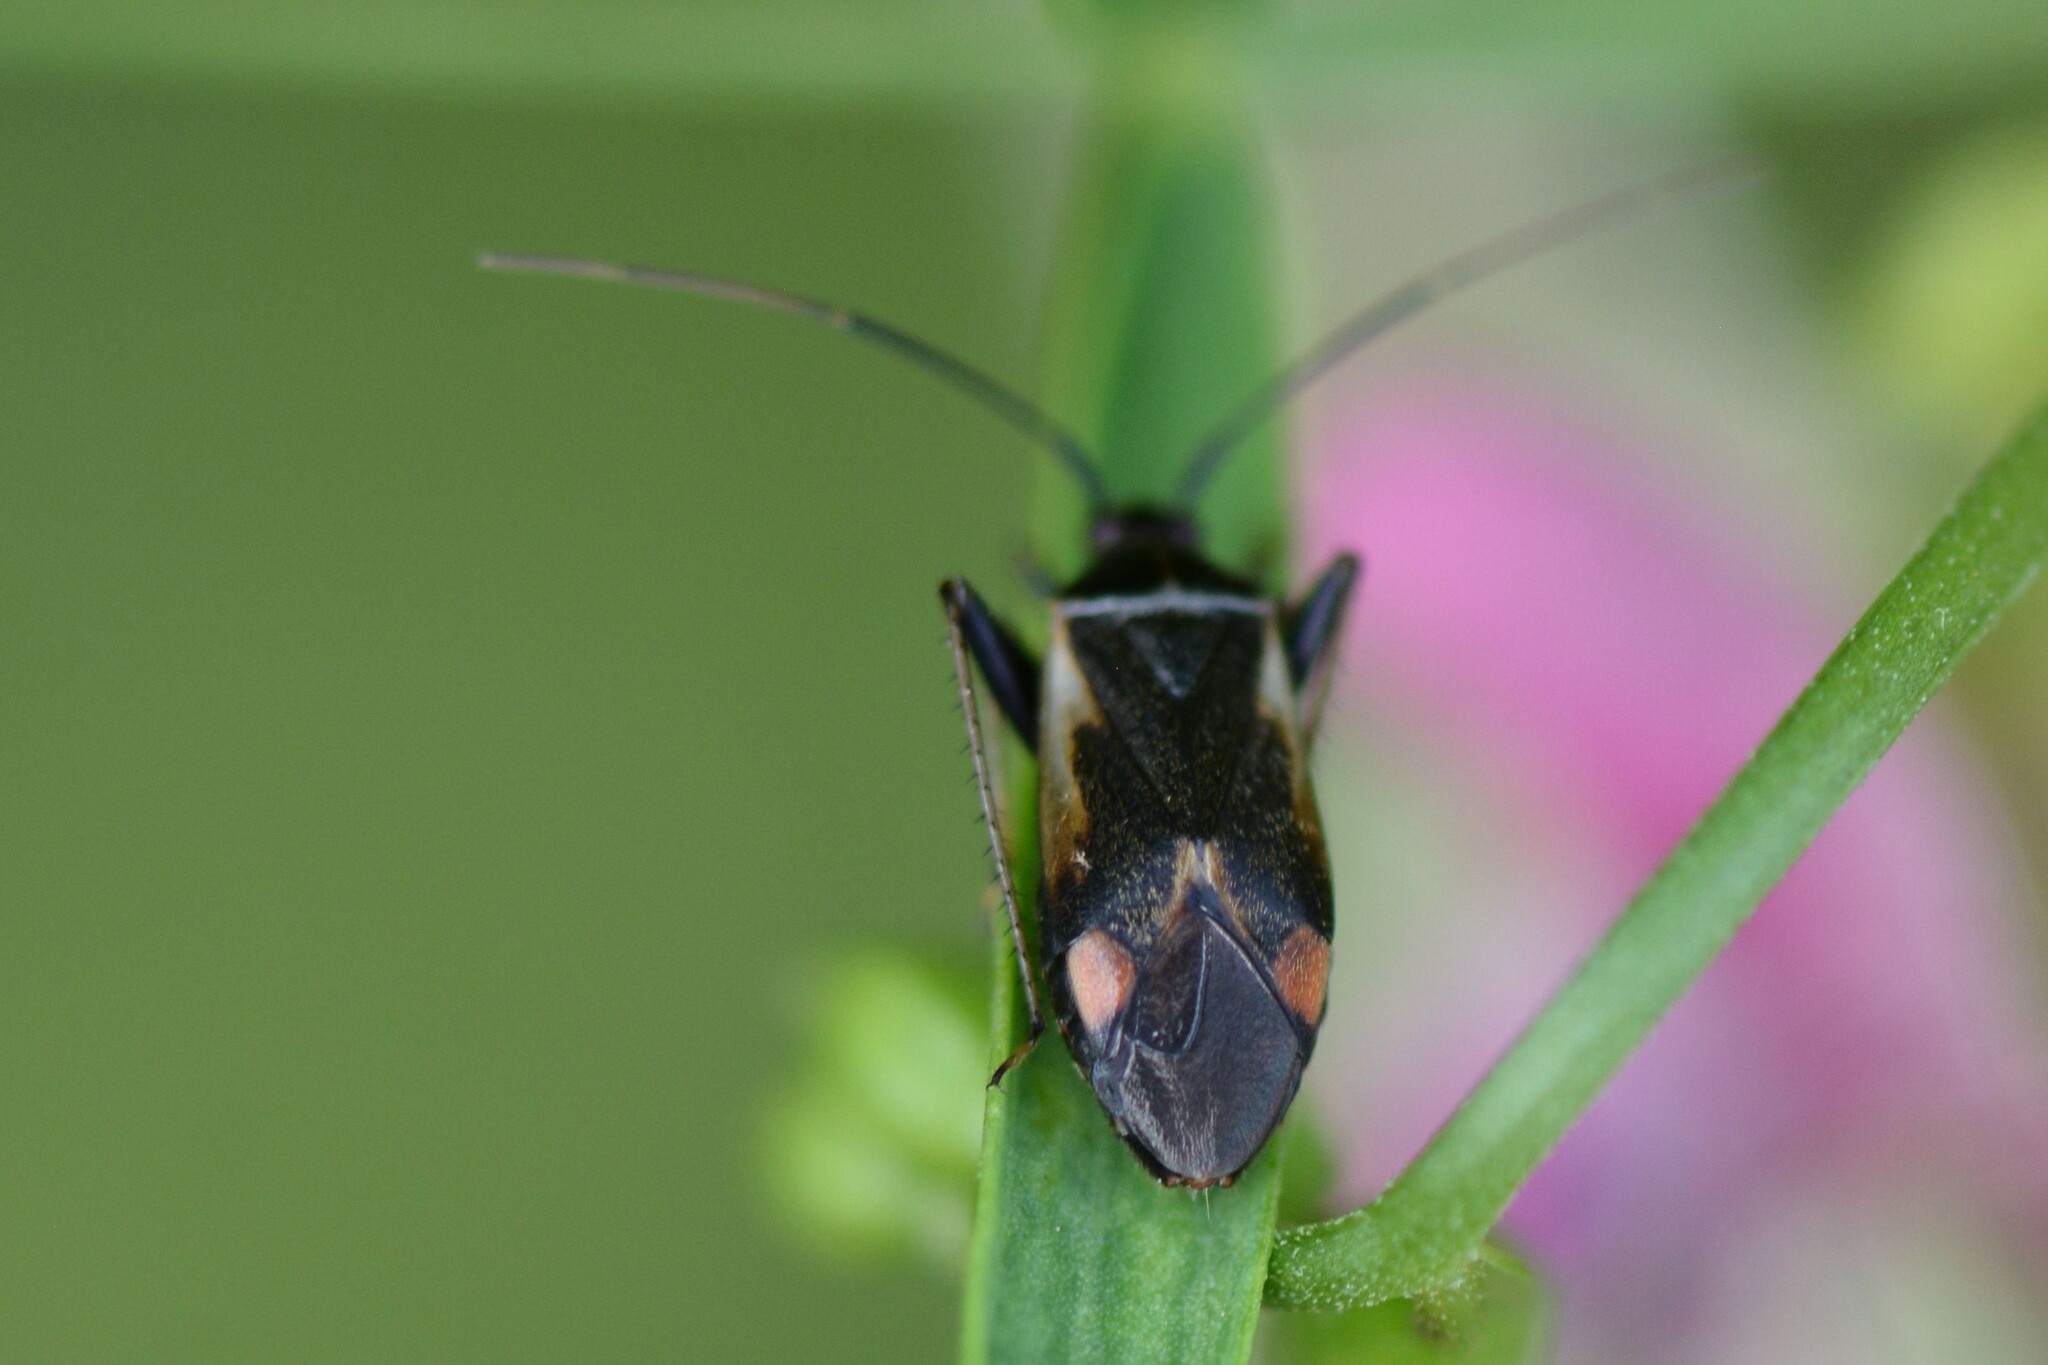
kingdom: Animalia
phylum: Arthropoda
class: Insecta
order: Hemiptera
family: Miridae
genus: Adelphocoris
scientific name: Adelphocoris seticornis
